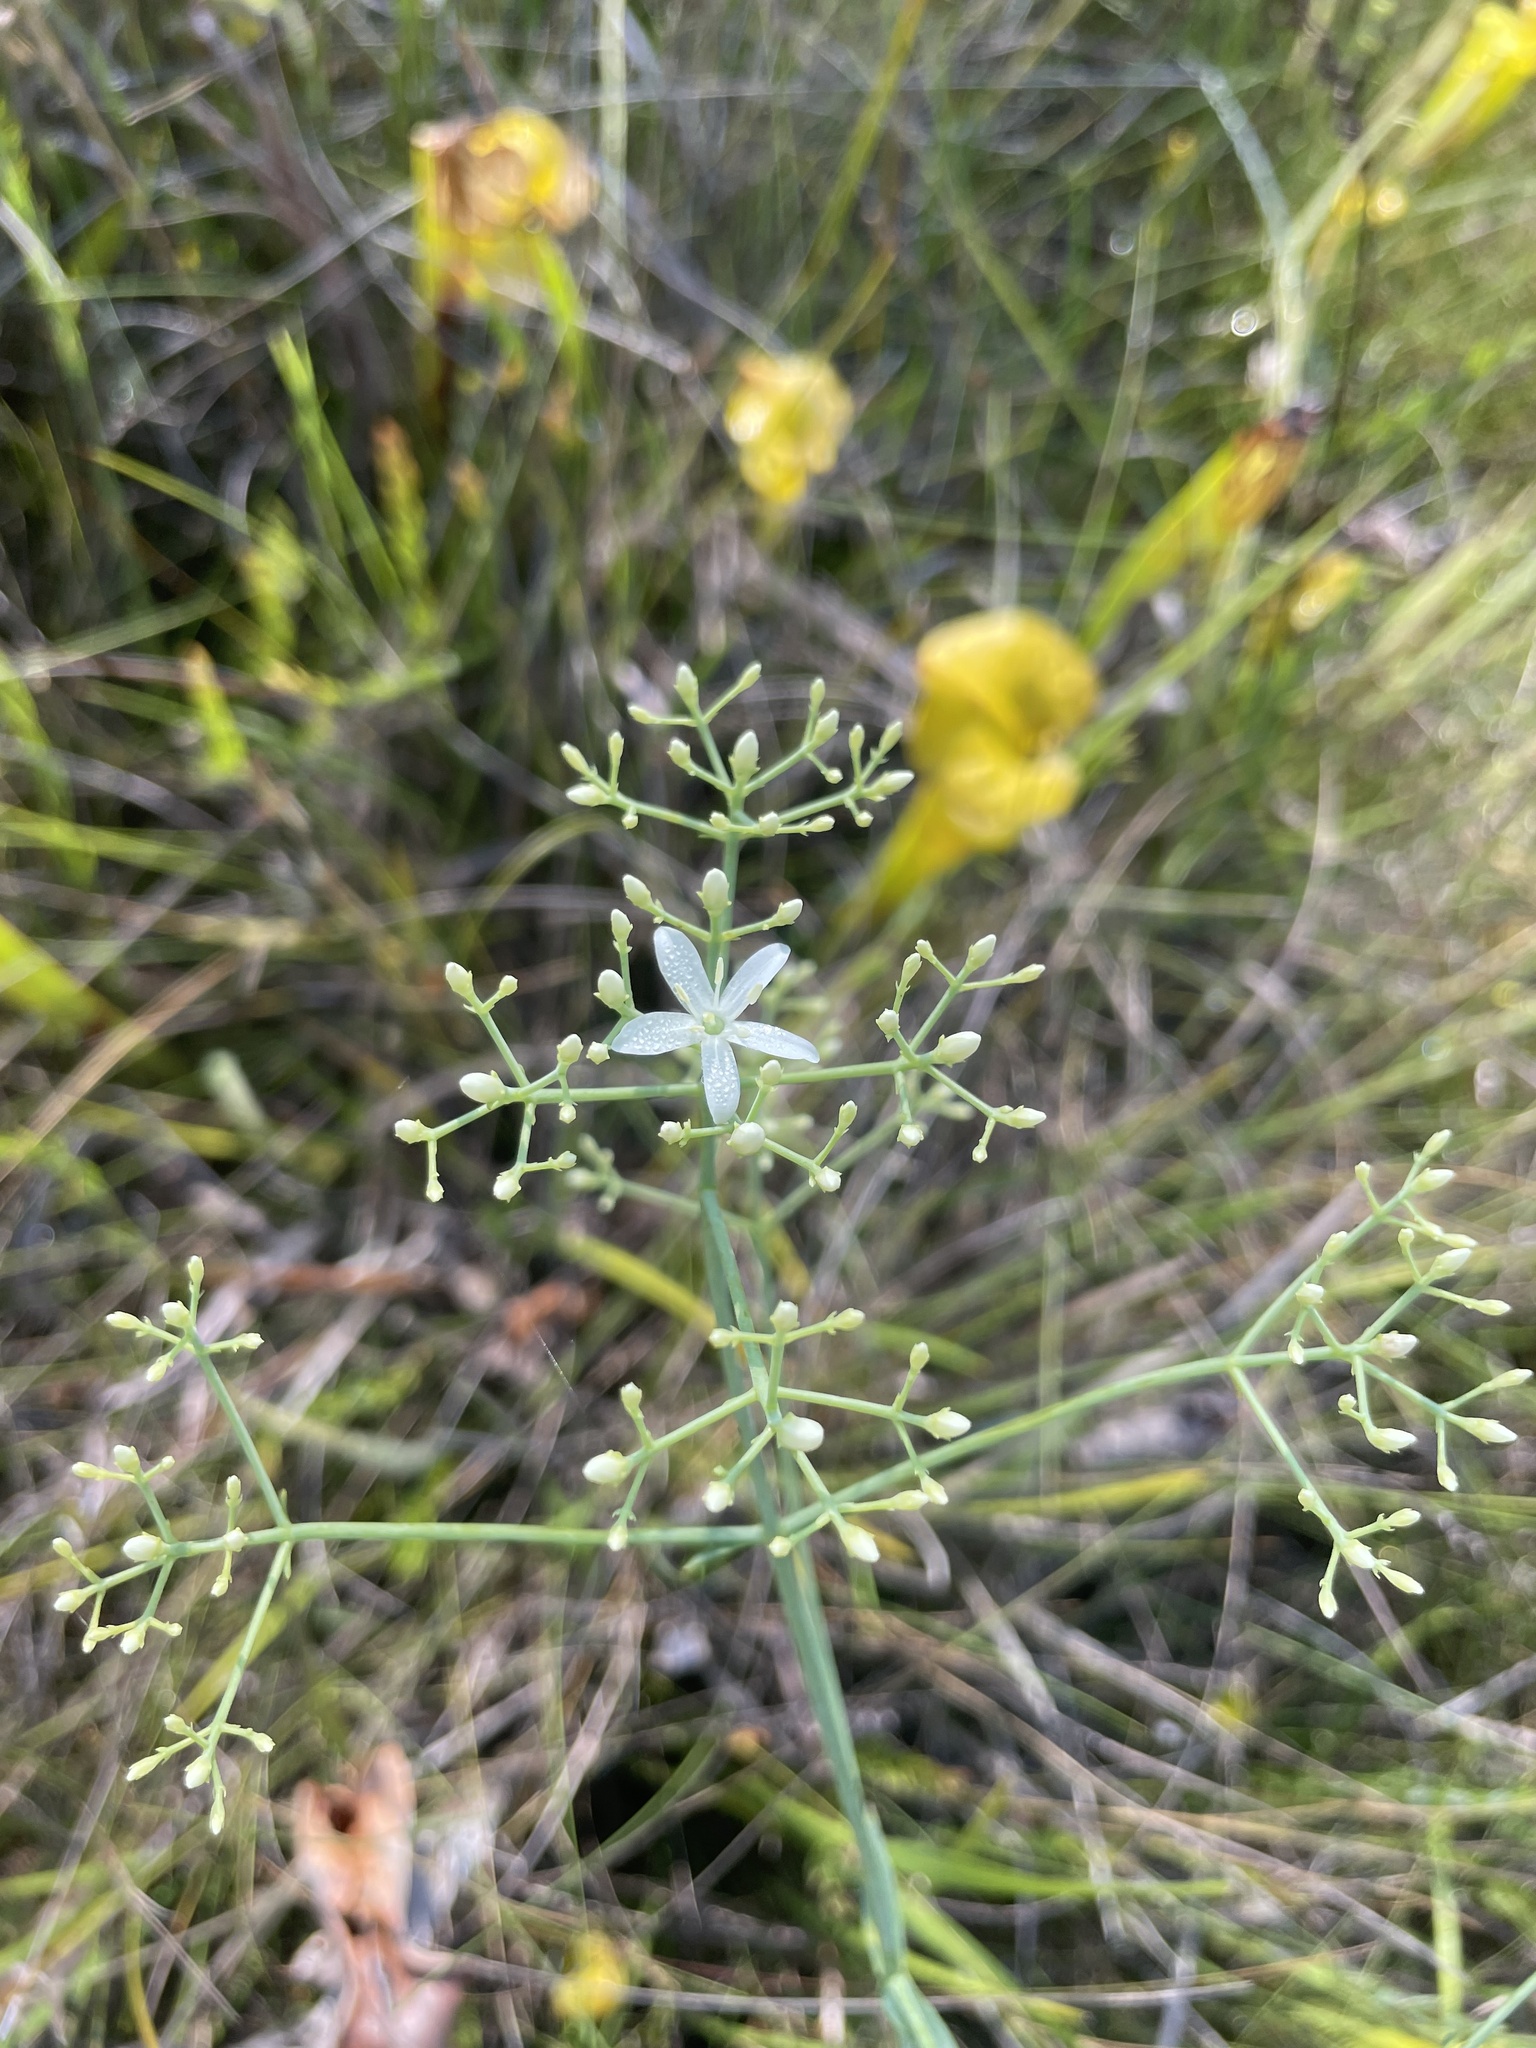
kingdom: Plantae
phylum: Tracheophyta
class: Magnoliopsida
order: Gentianales
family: Gentianaceae
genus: Sabatia
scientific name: Sabatia macrophylla
